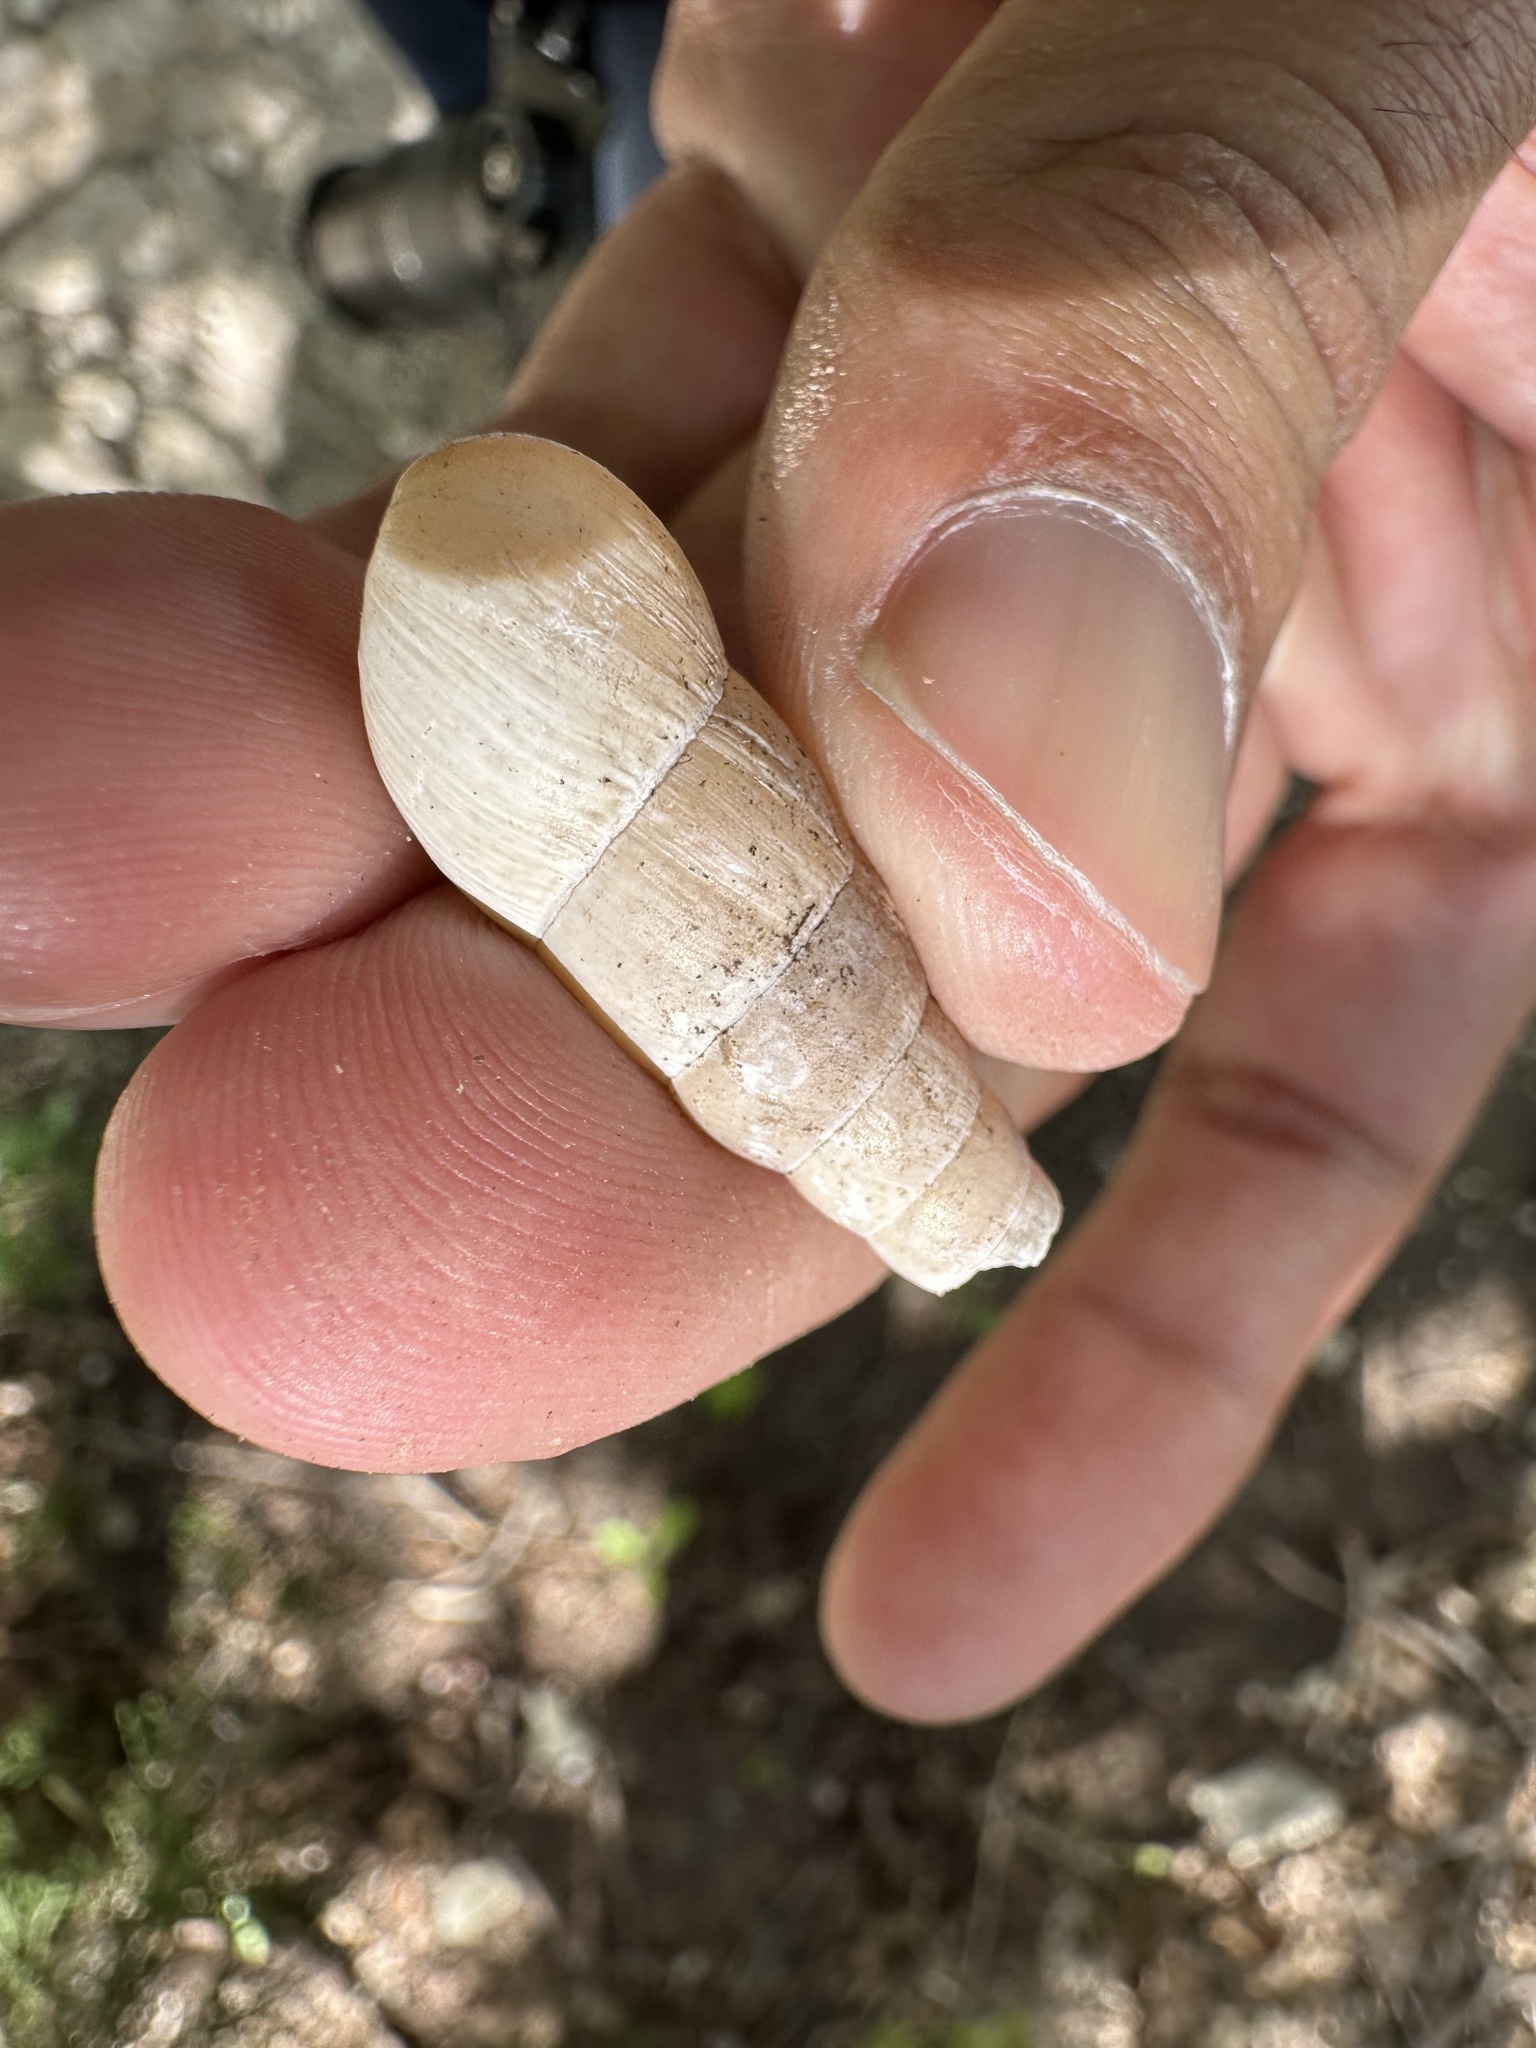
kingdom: Animalia
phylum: Mollusca
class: Gastropoda
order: Stylommatophora
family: Achatinidae
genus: Rumina
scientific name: Rumina decollata
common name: Decollate snail
